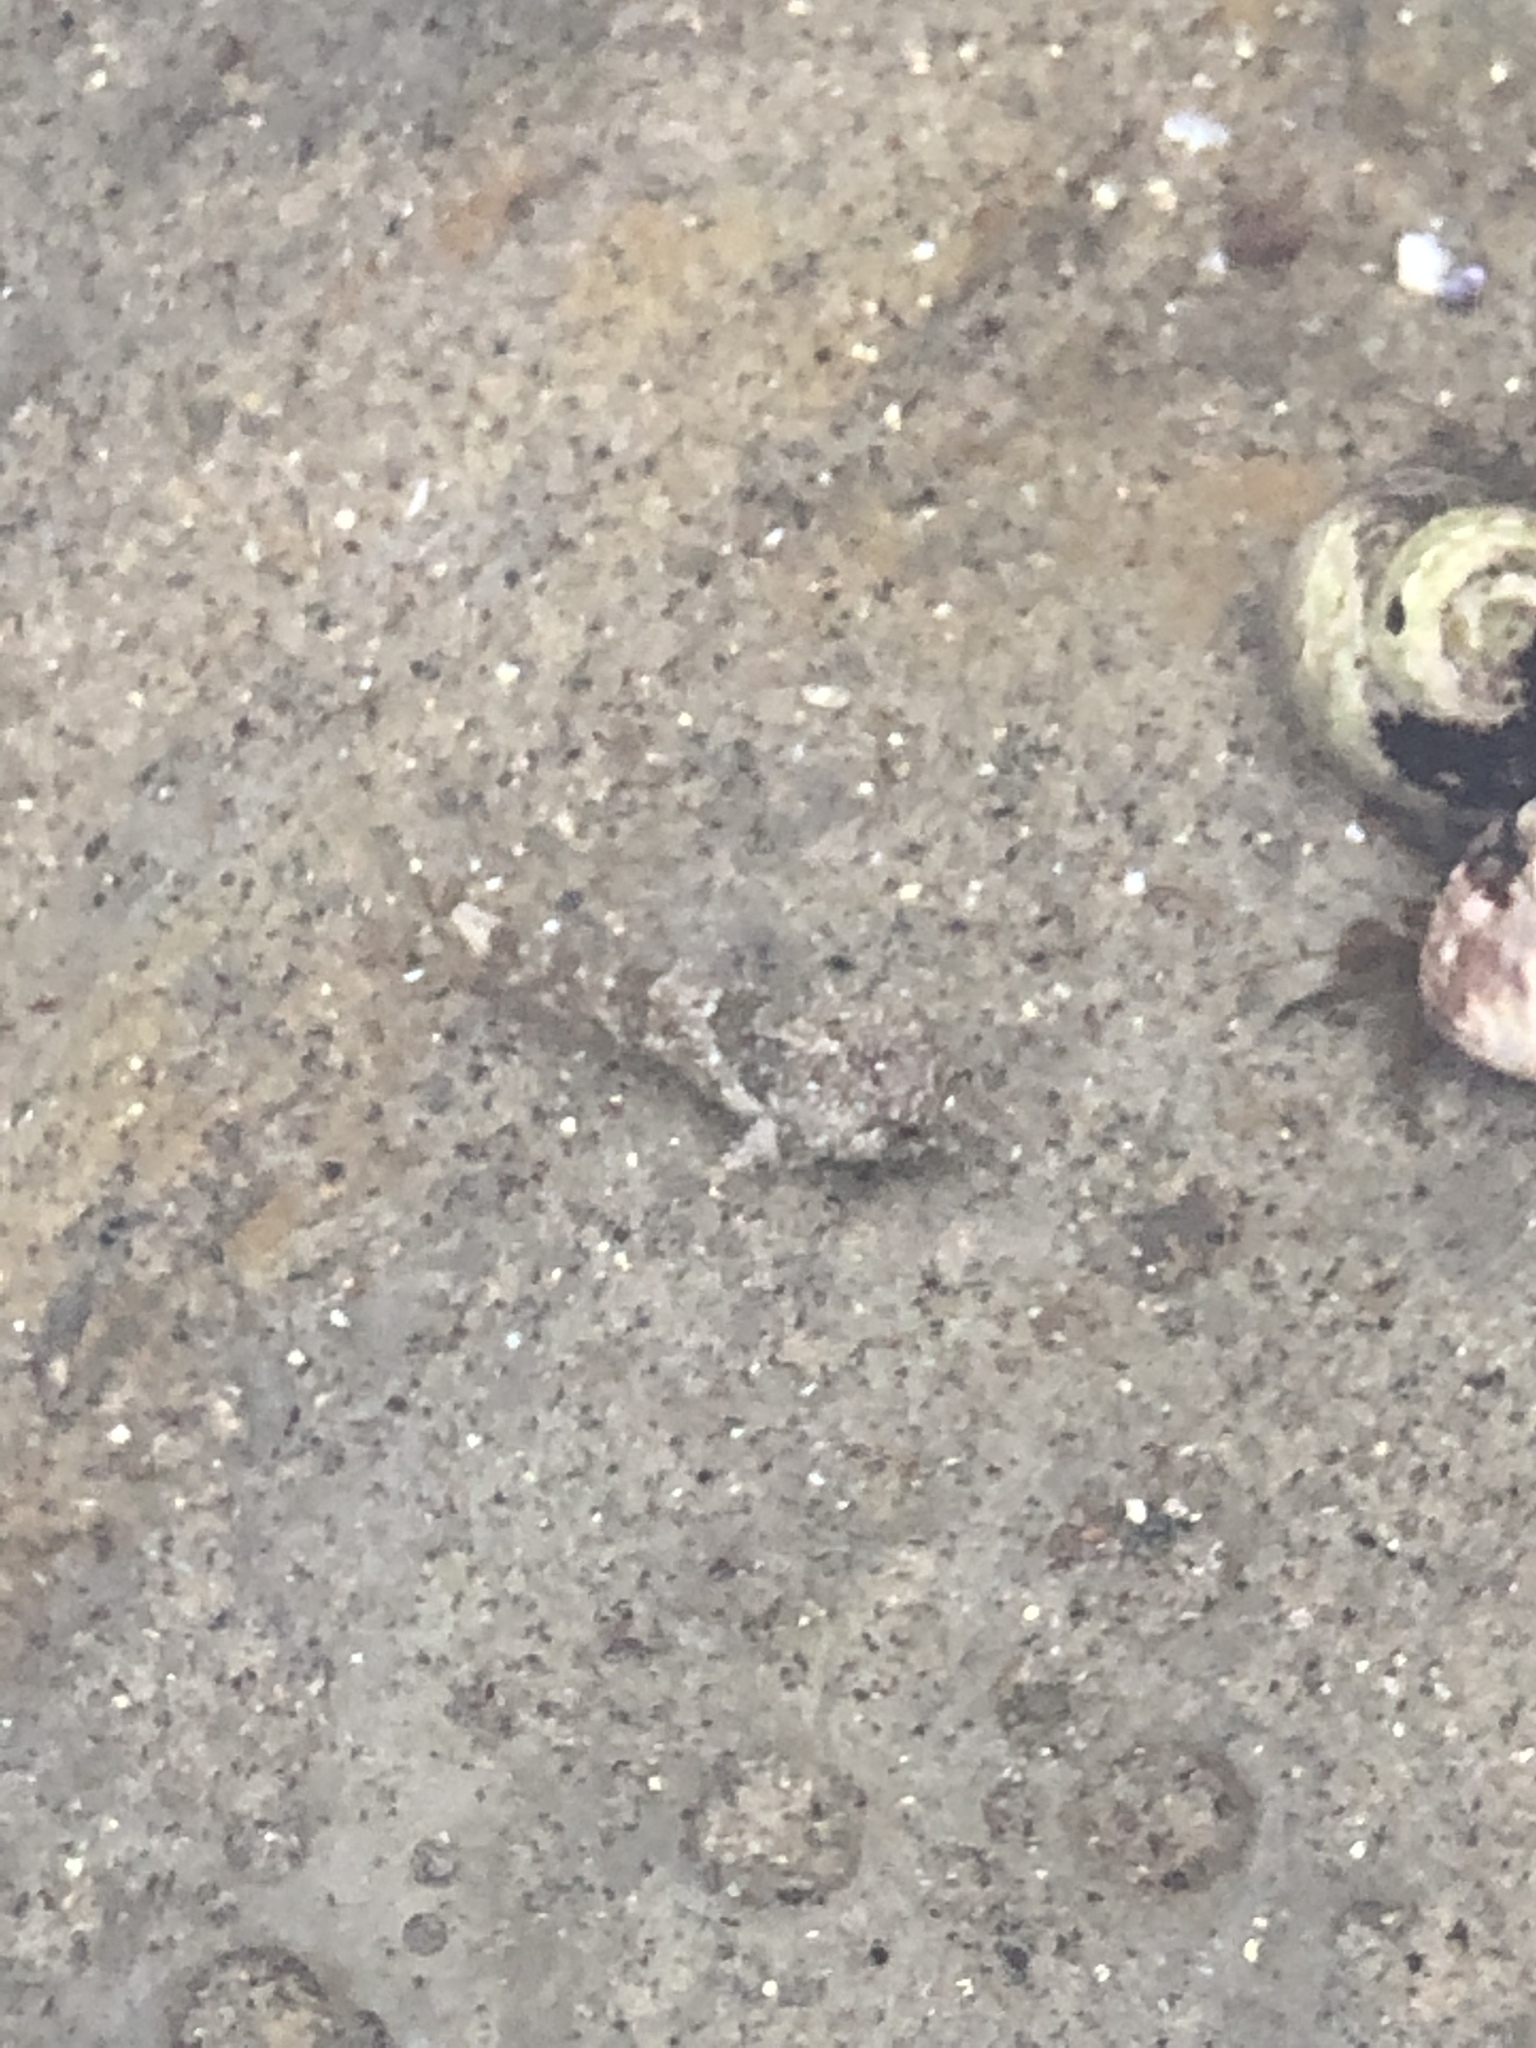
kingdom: Animalia
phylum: Chordata
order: Scorpaeniformes
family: Cottidae
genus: Clinocottus
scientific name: Clinocottus analis
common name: Woolly sculpin
